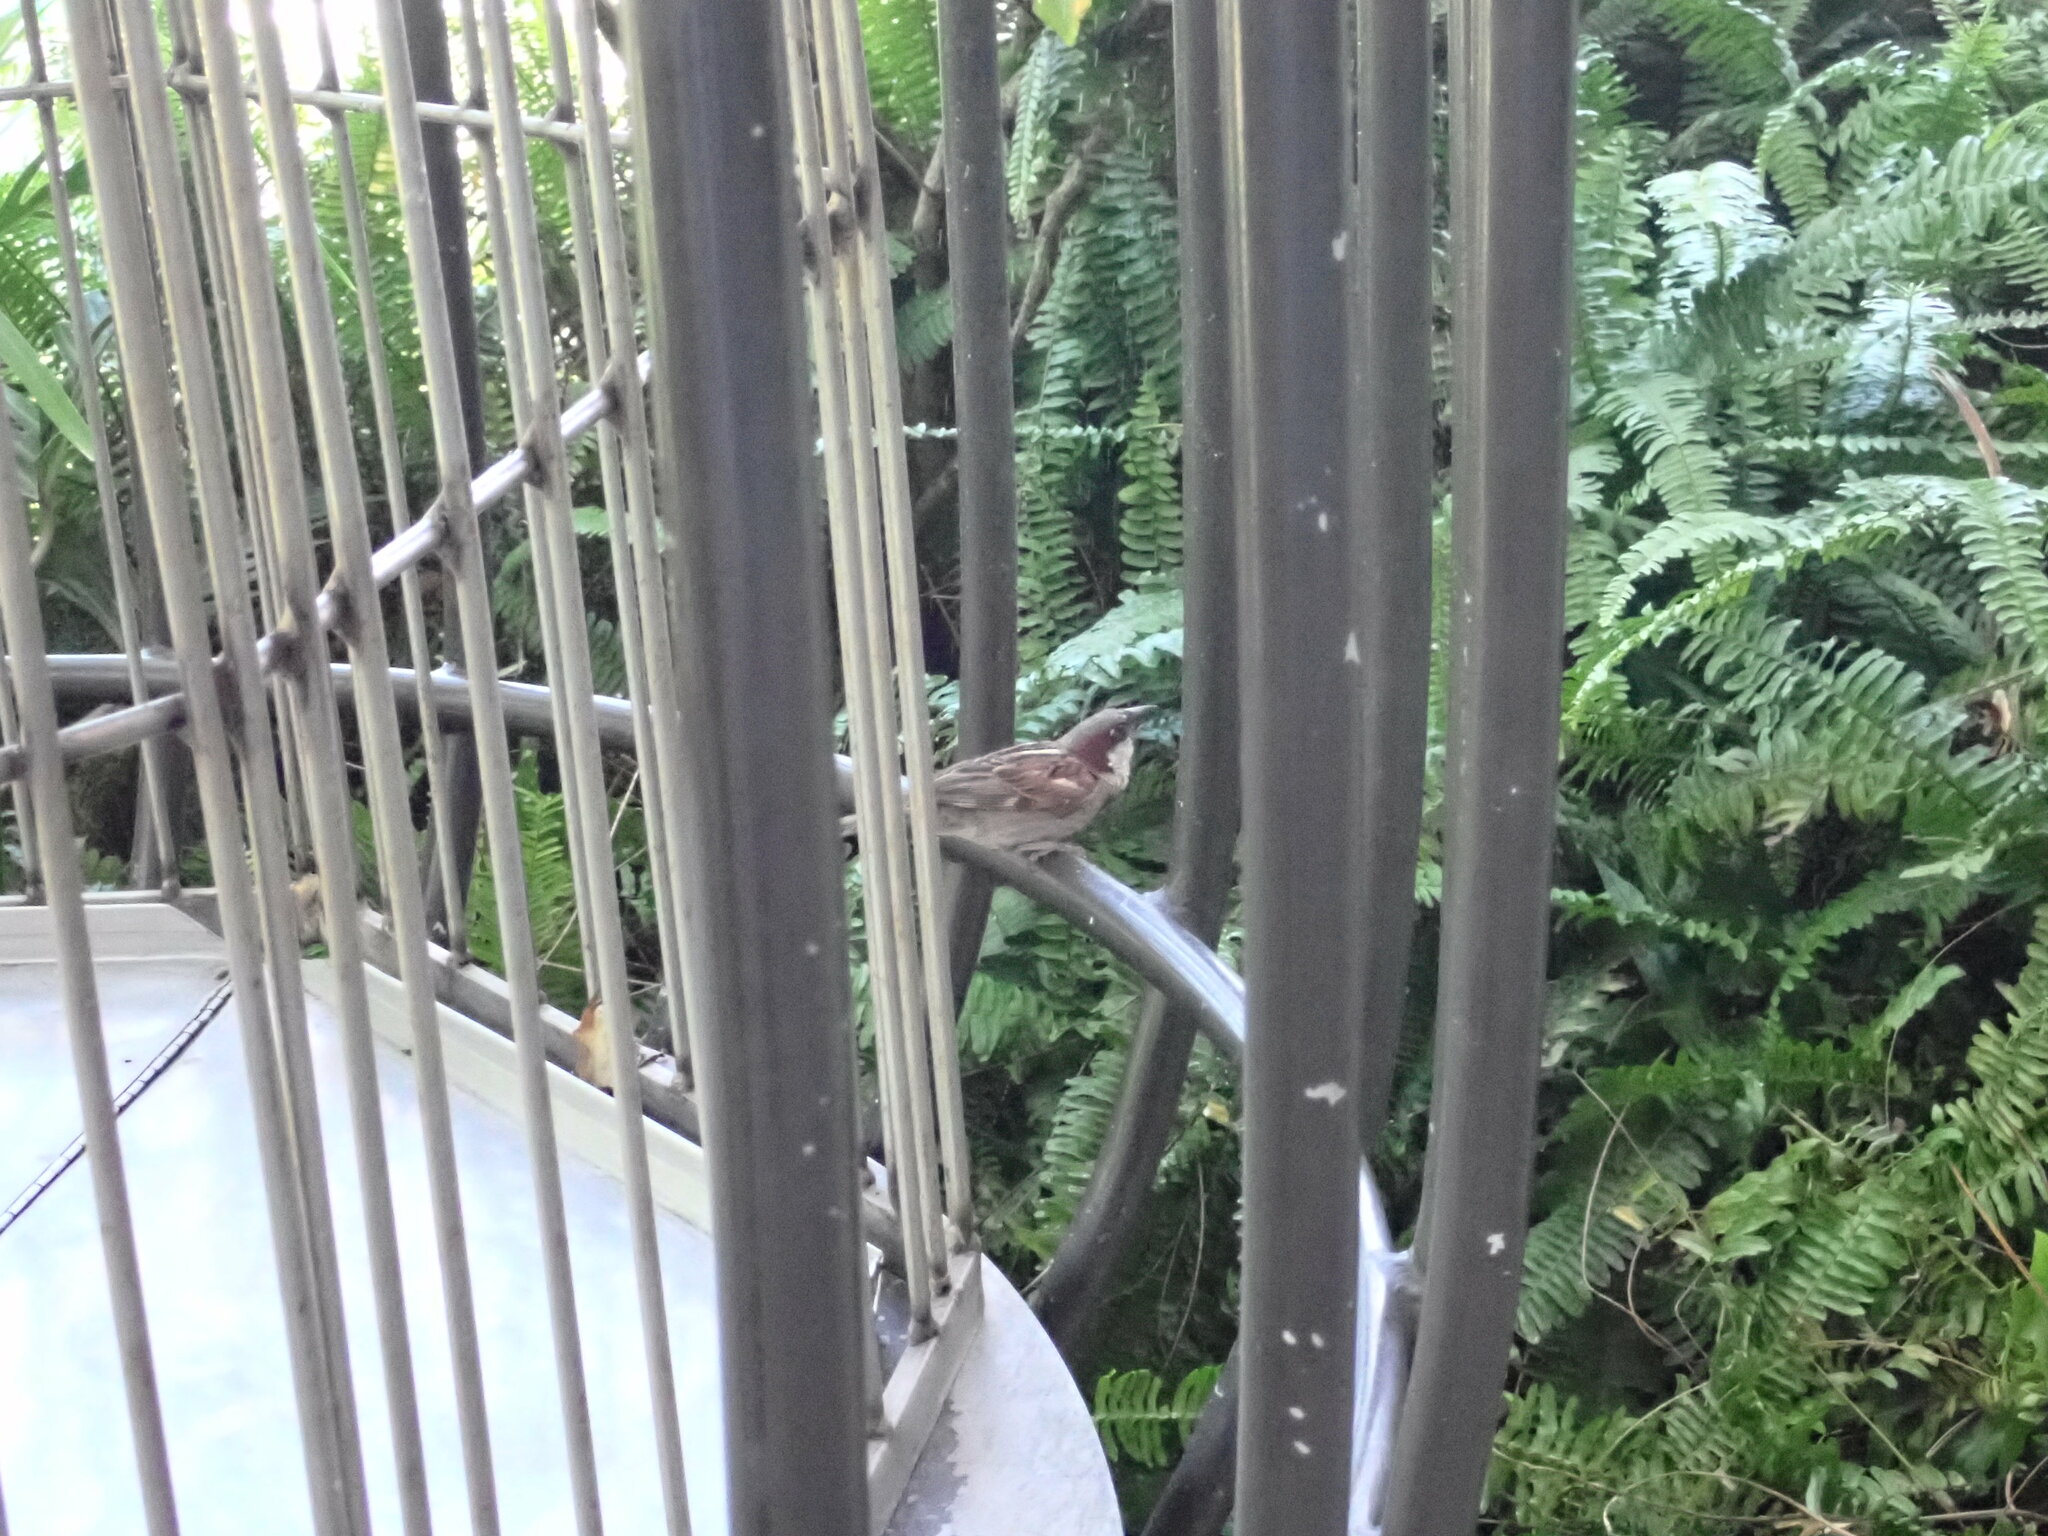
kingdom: Animalia
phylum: Chordata
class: Aves
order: Passeriformes
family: Passeridae
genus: Passer
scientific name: Passer domesticus
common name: House sparrow
